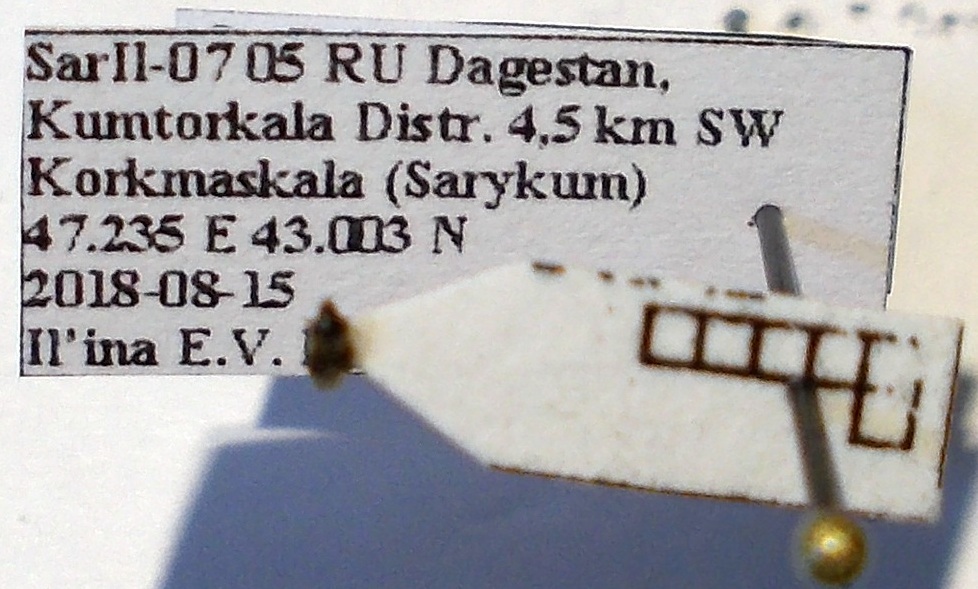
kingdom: Animalia
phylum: Arthropoda
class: Insecta
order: Hemiptera
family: Anthocoridae
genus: Orius
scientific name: Orius minutus
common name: Minute pirate bug
